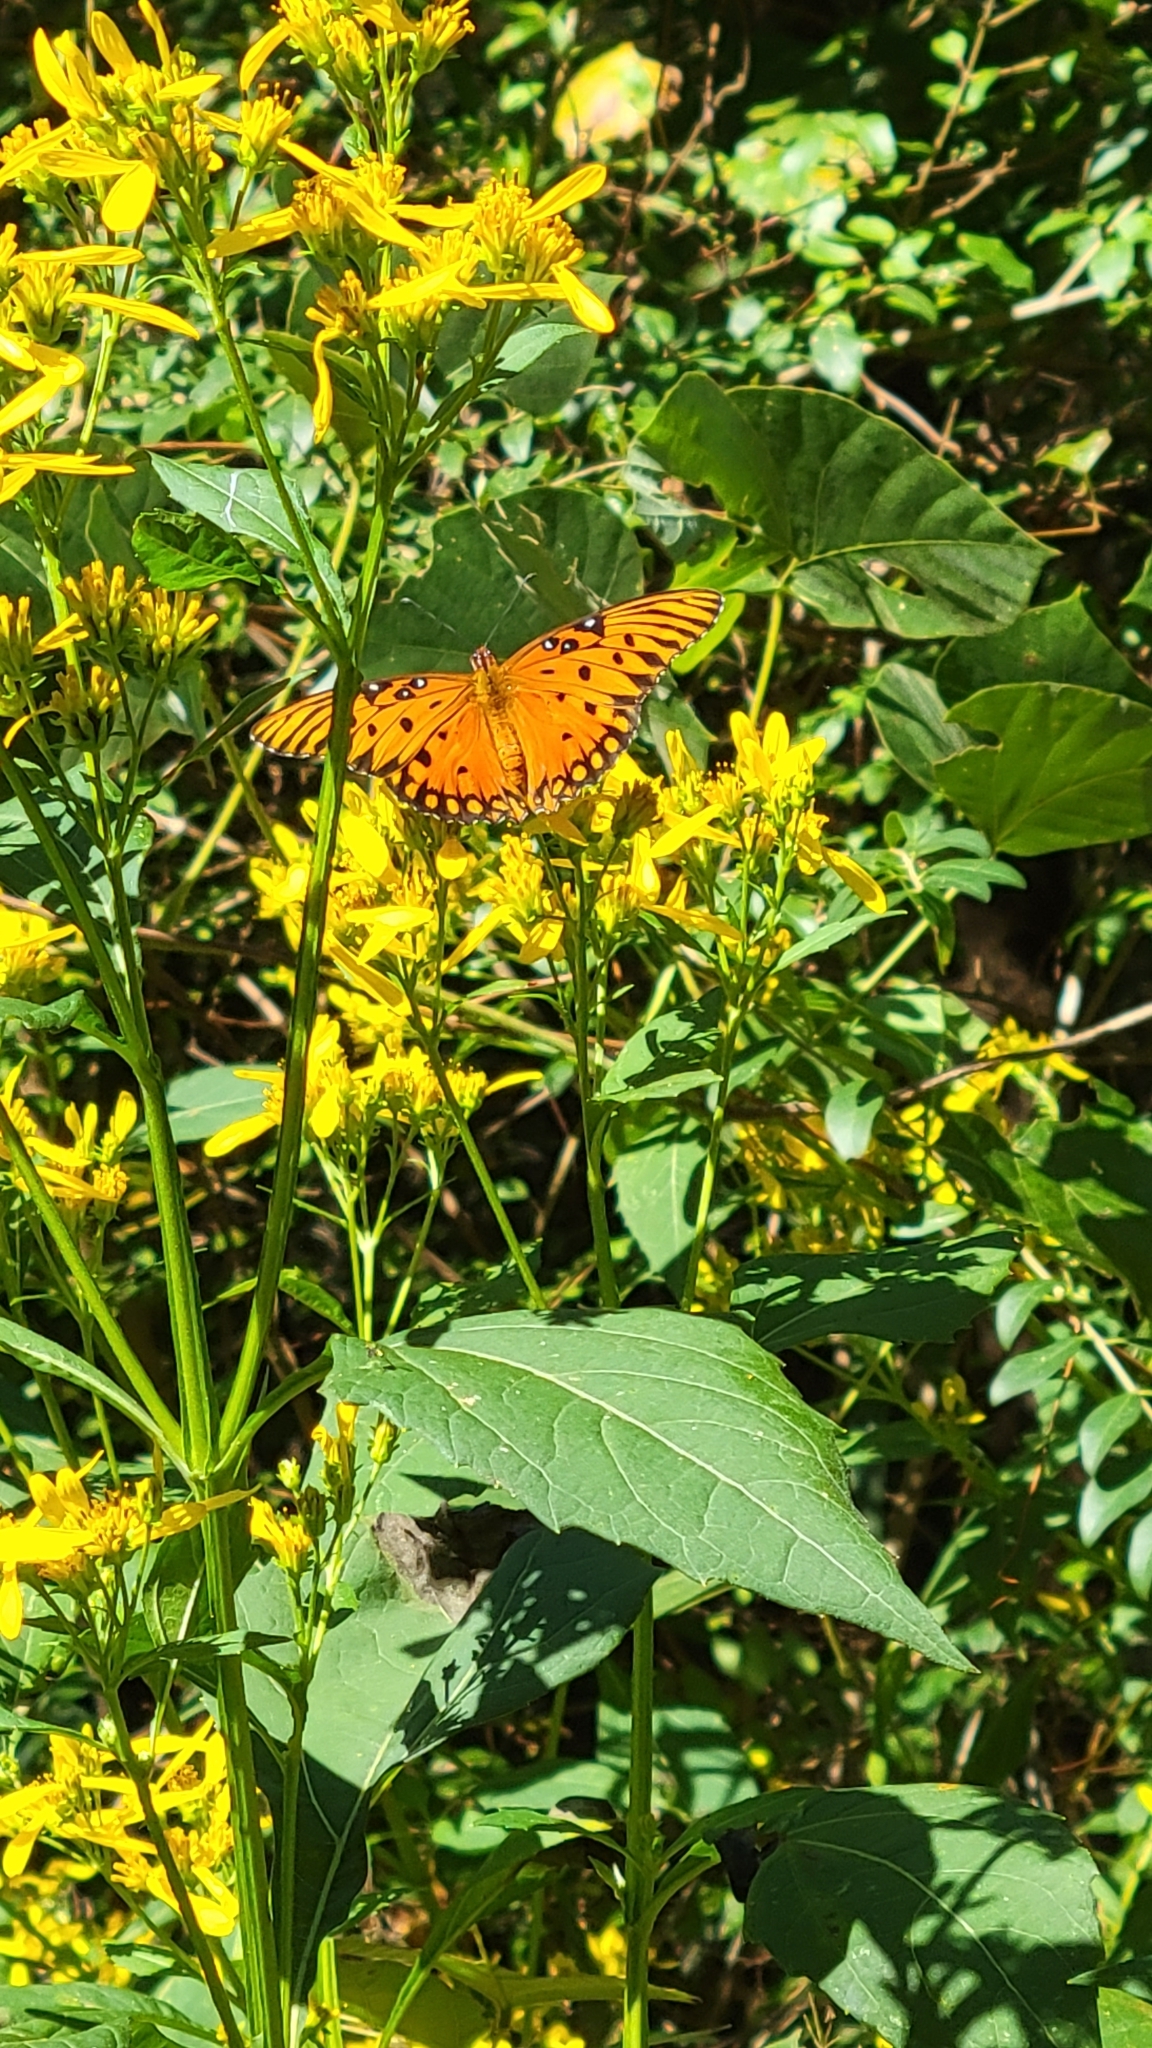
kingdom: Animalia
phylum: Arthropoda
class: Insecta
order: Lepidoptera
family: Nymphalidae
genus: Dione
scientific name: Dione vanillae
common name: Gulf fritillary
